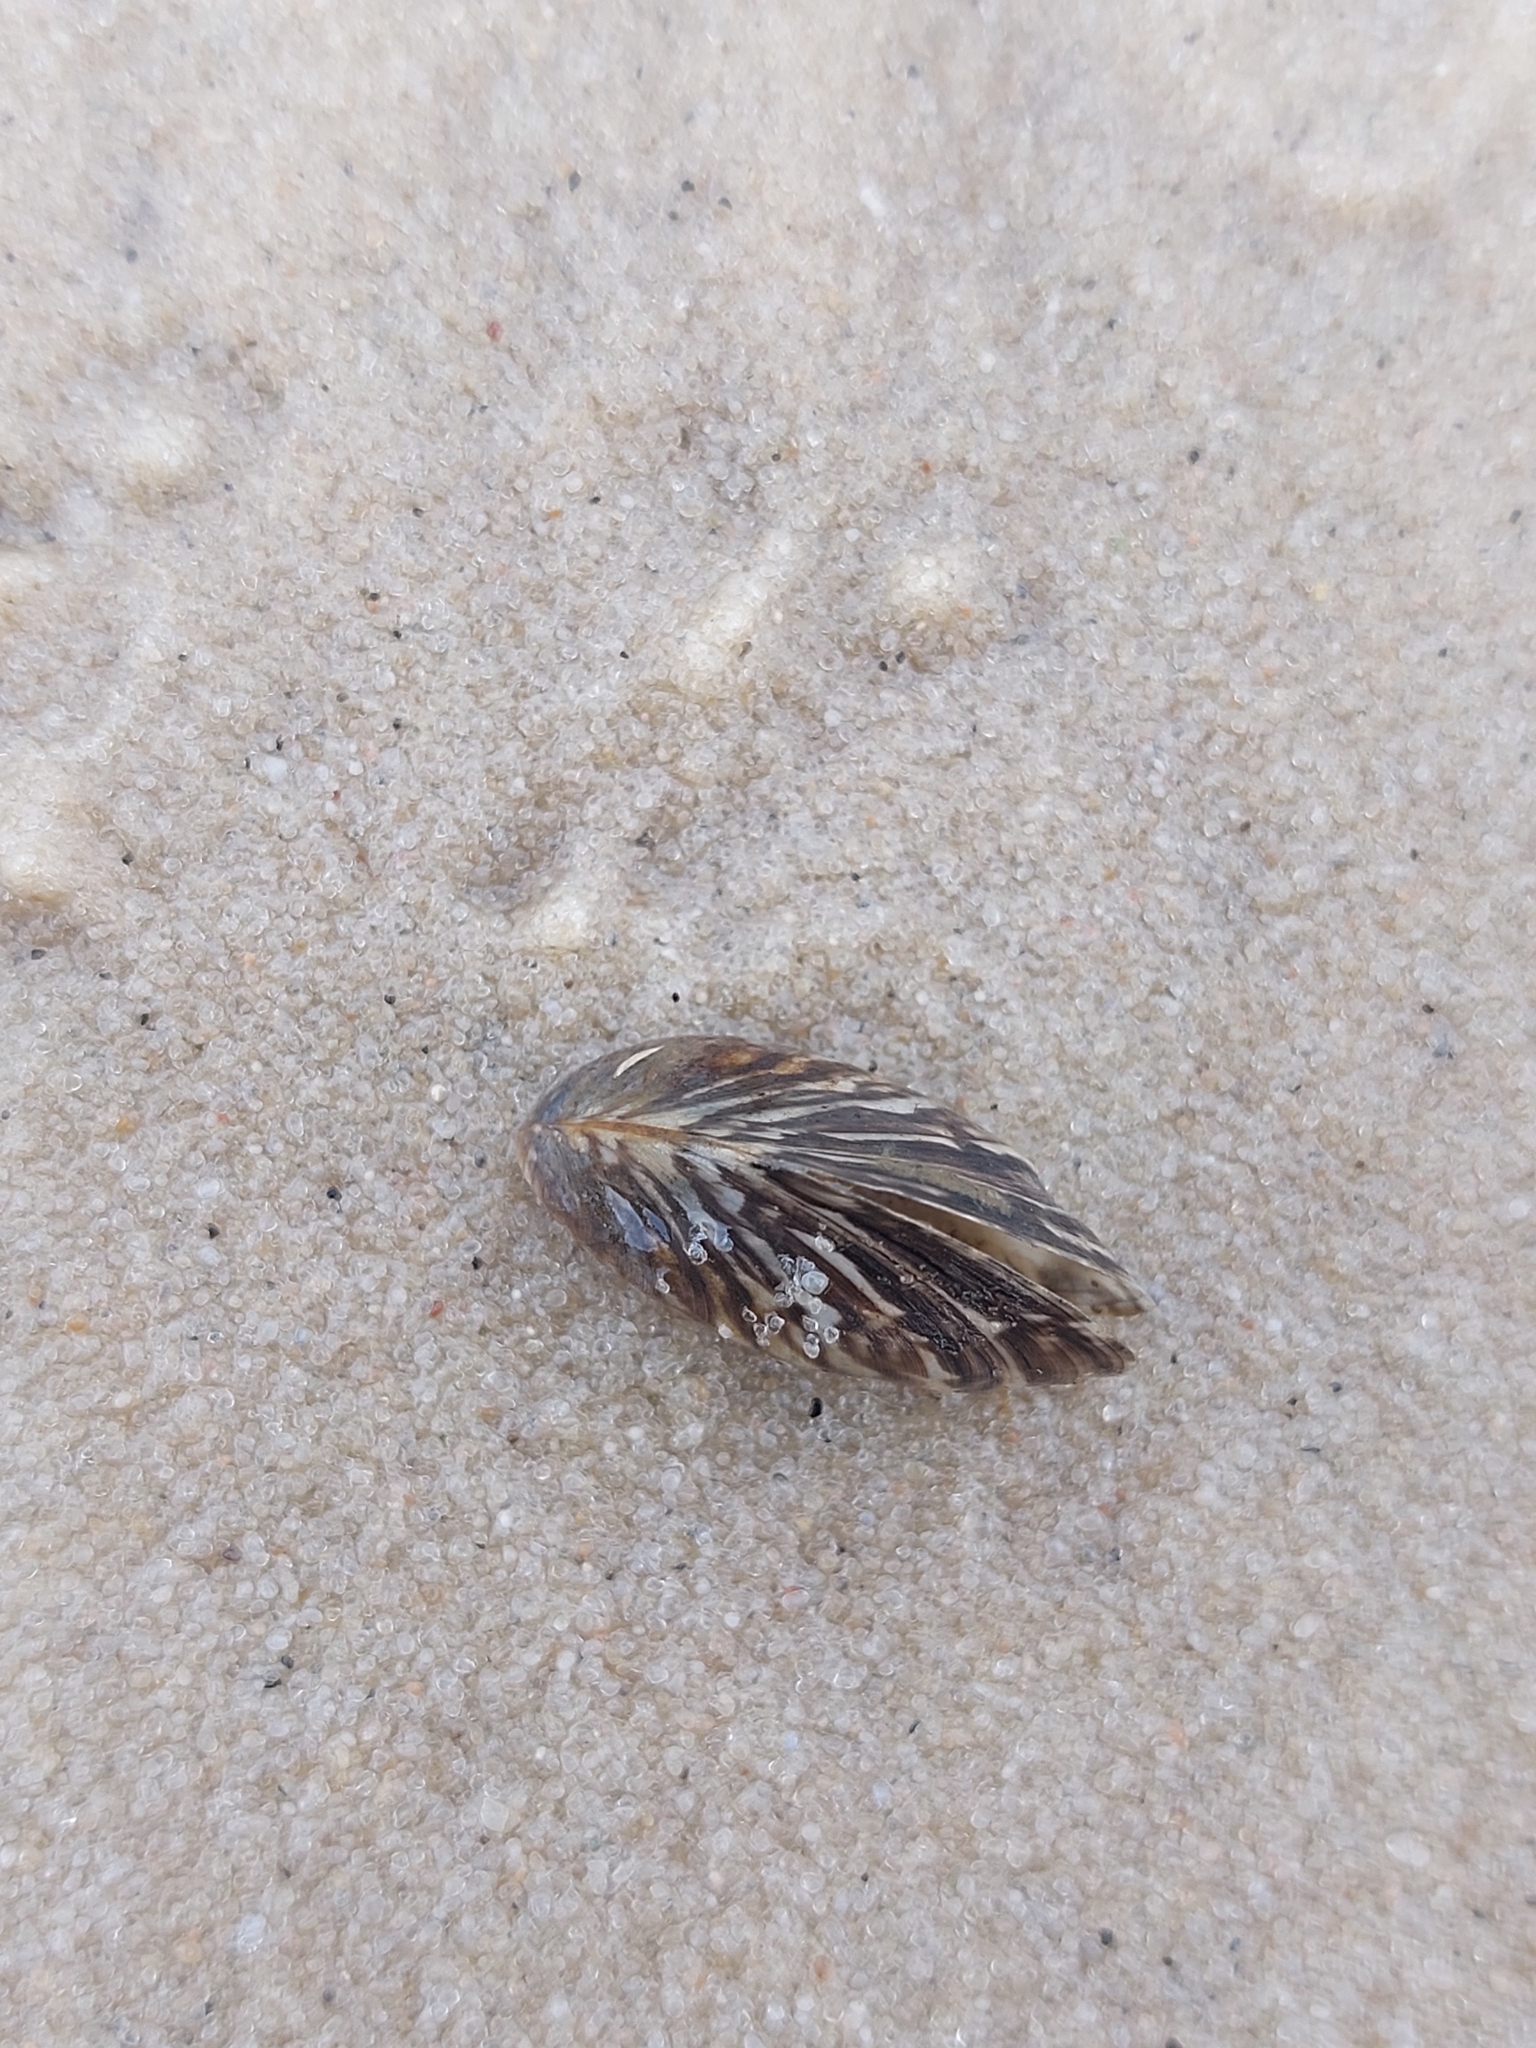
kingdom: Animalia
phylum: Mollusca
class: Bivalvia
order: Myida
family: Dreissenidae
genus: Dreissena
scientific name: Dreissena bugensis
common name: Quagga mussel
